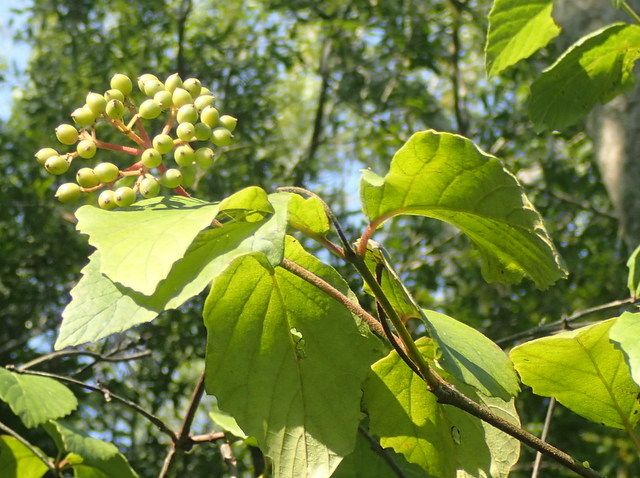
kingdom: Plantae
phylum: Tracheophyta
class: Magnoliopsida
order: Dipsacales
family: Viburnaceae
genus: Viburnum
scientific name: Viburnum scabrellum
